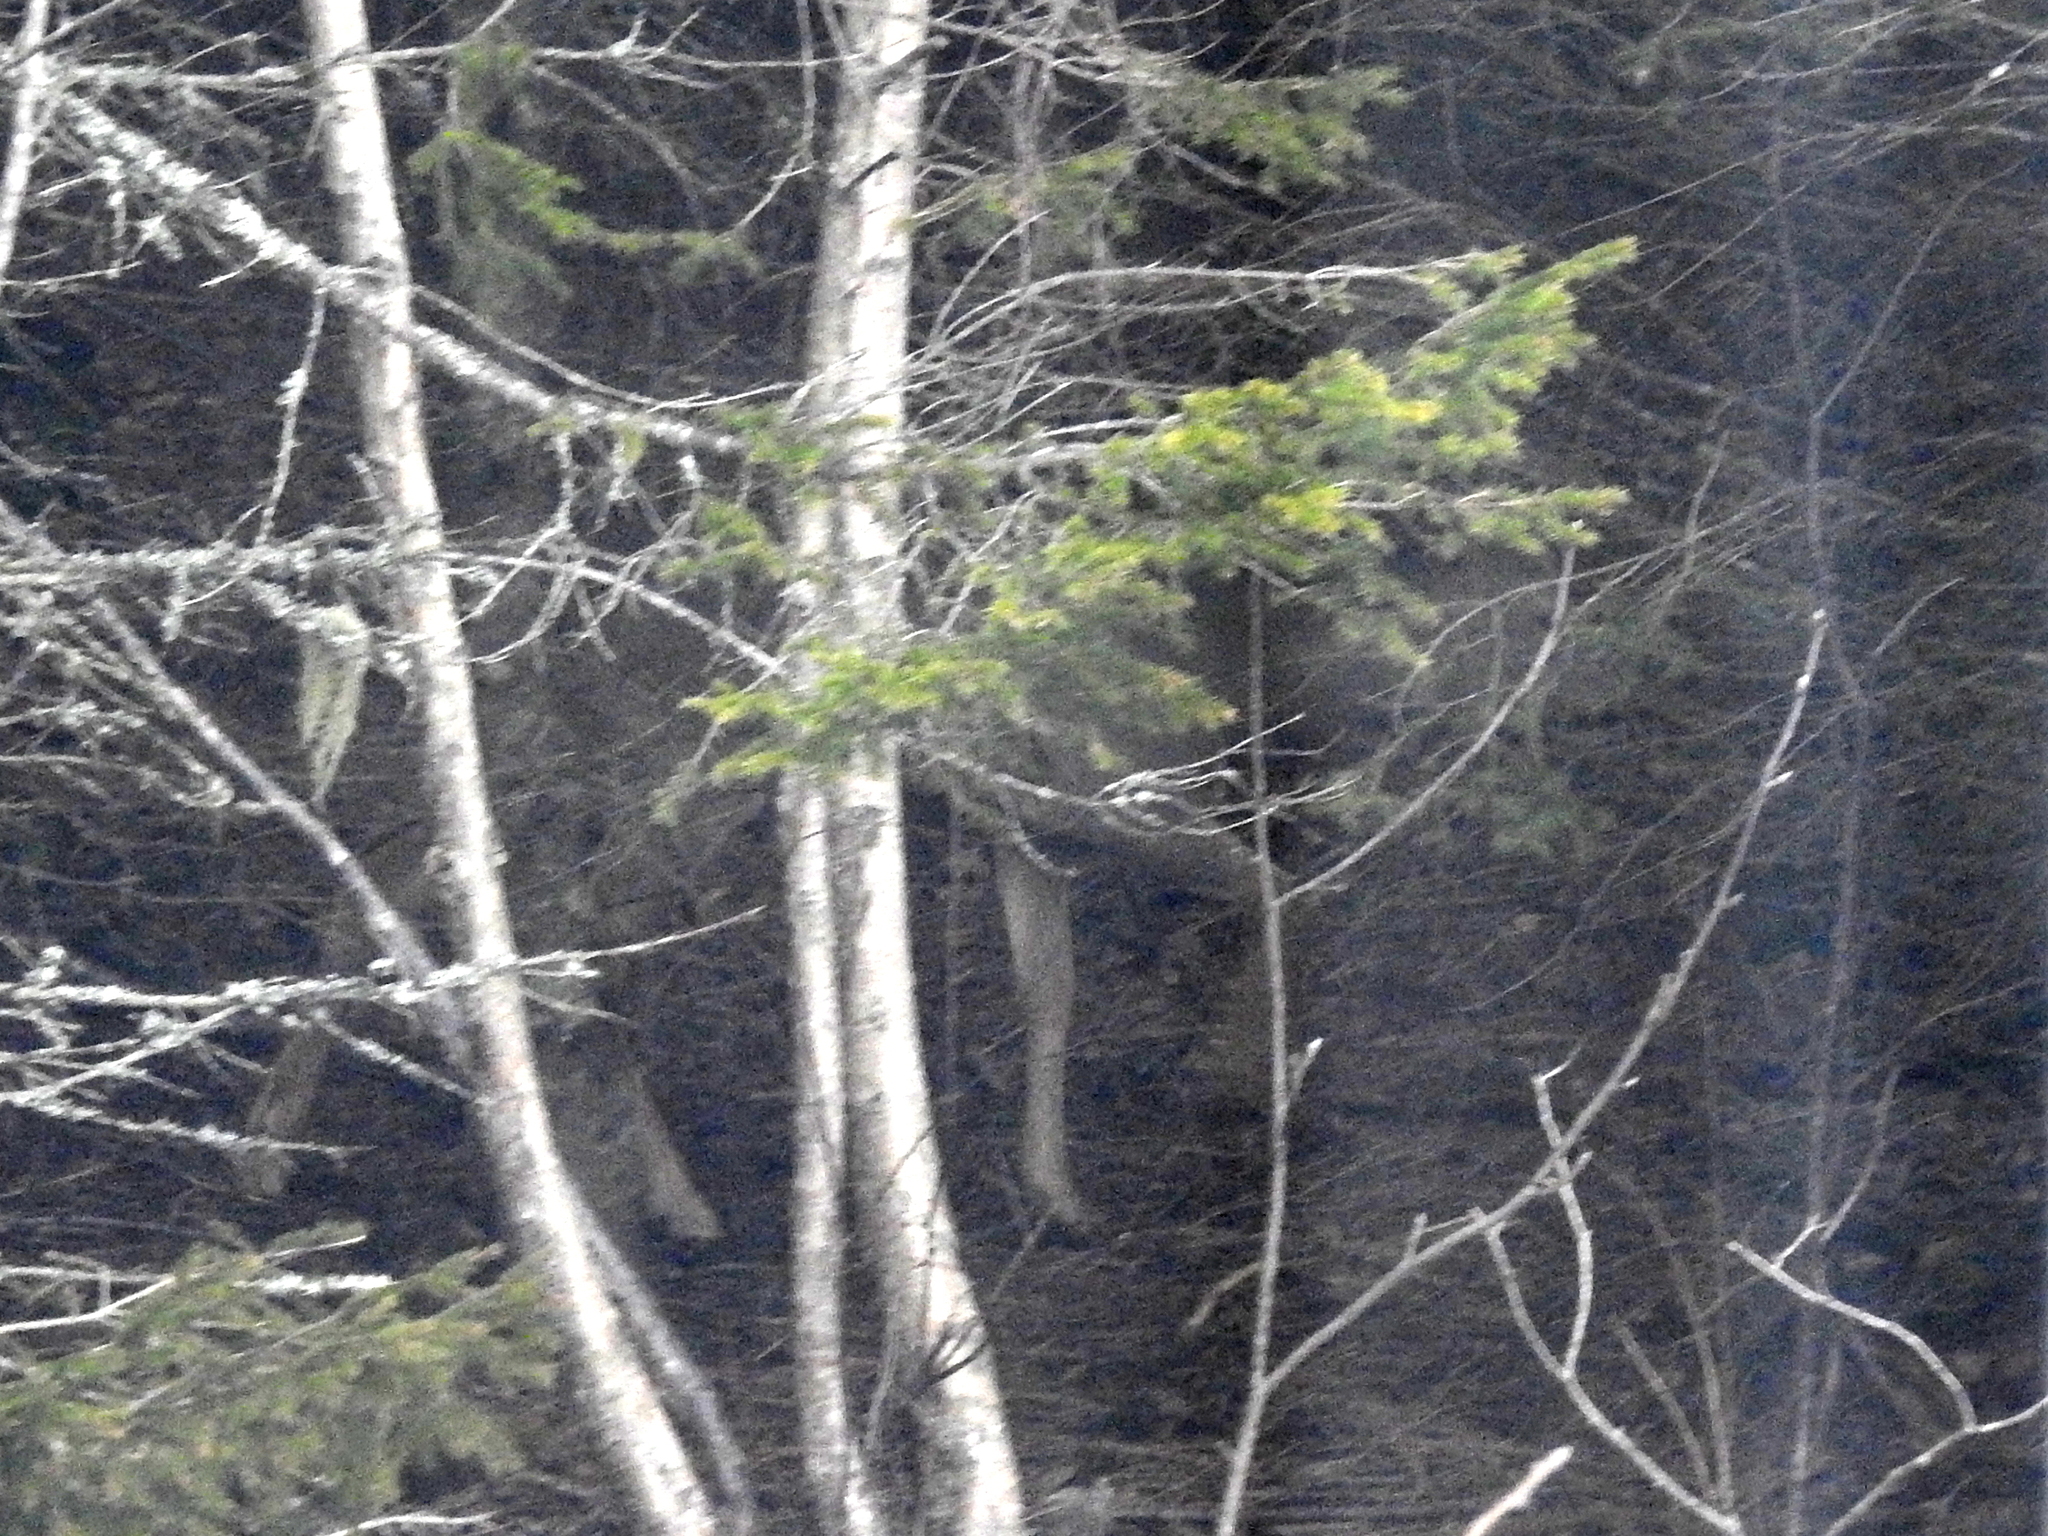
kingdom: Animalia
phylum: Chordata
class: Mammalia
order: Artiodactyla
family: Cervidae
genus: Capreolus
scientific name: Capreolus capreolus
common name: Western roe deer
